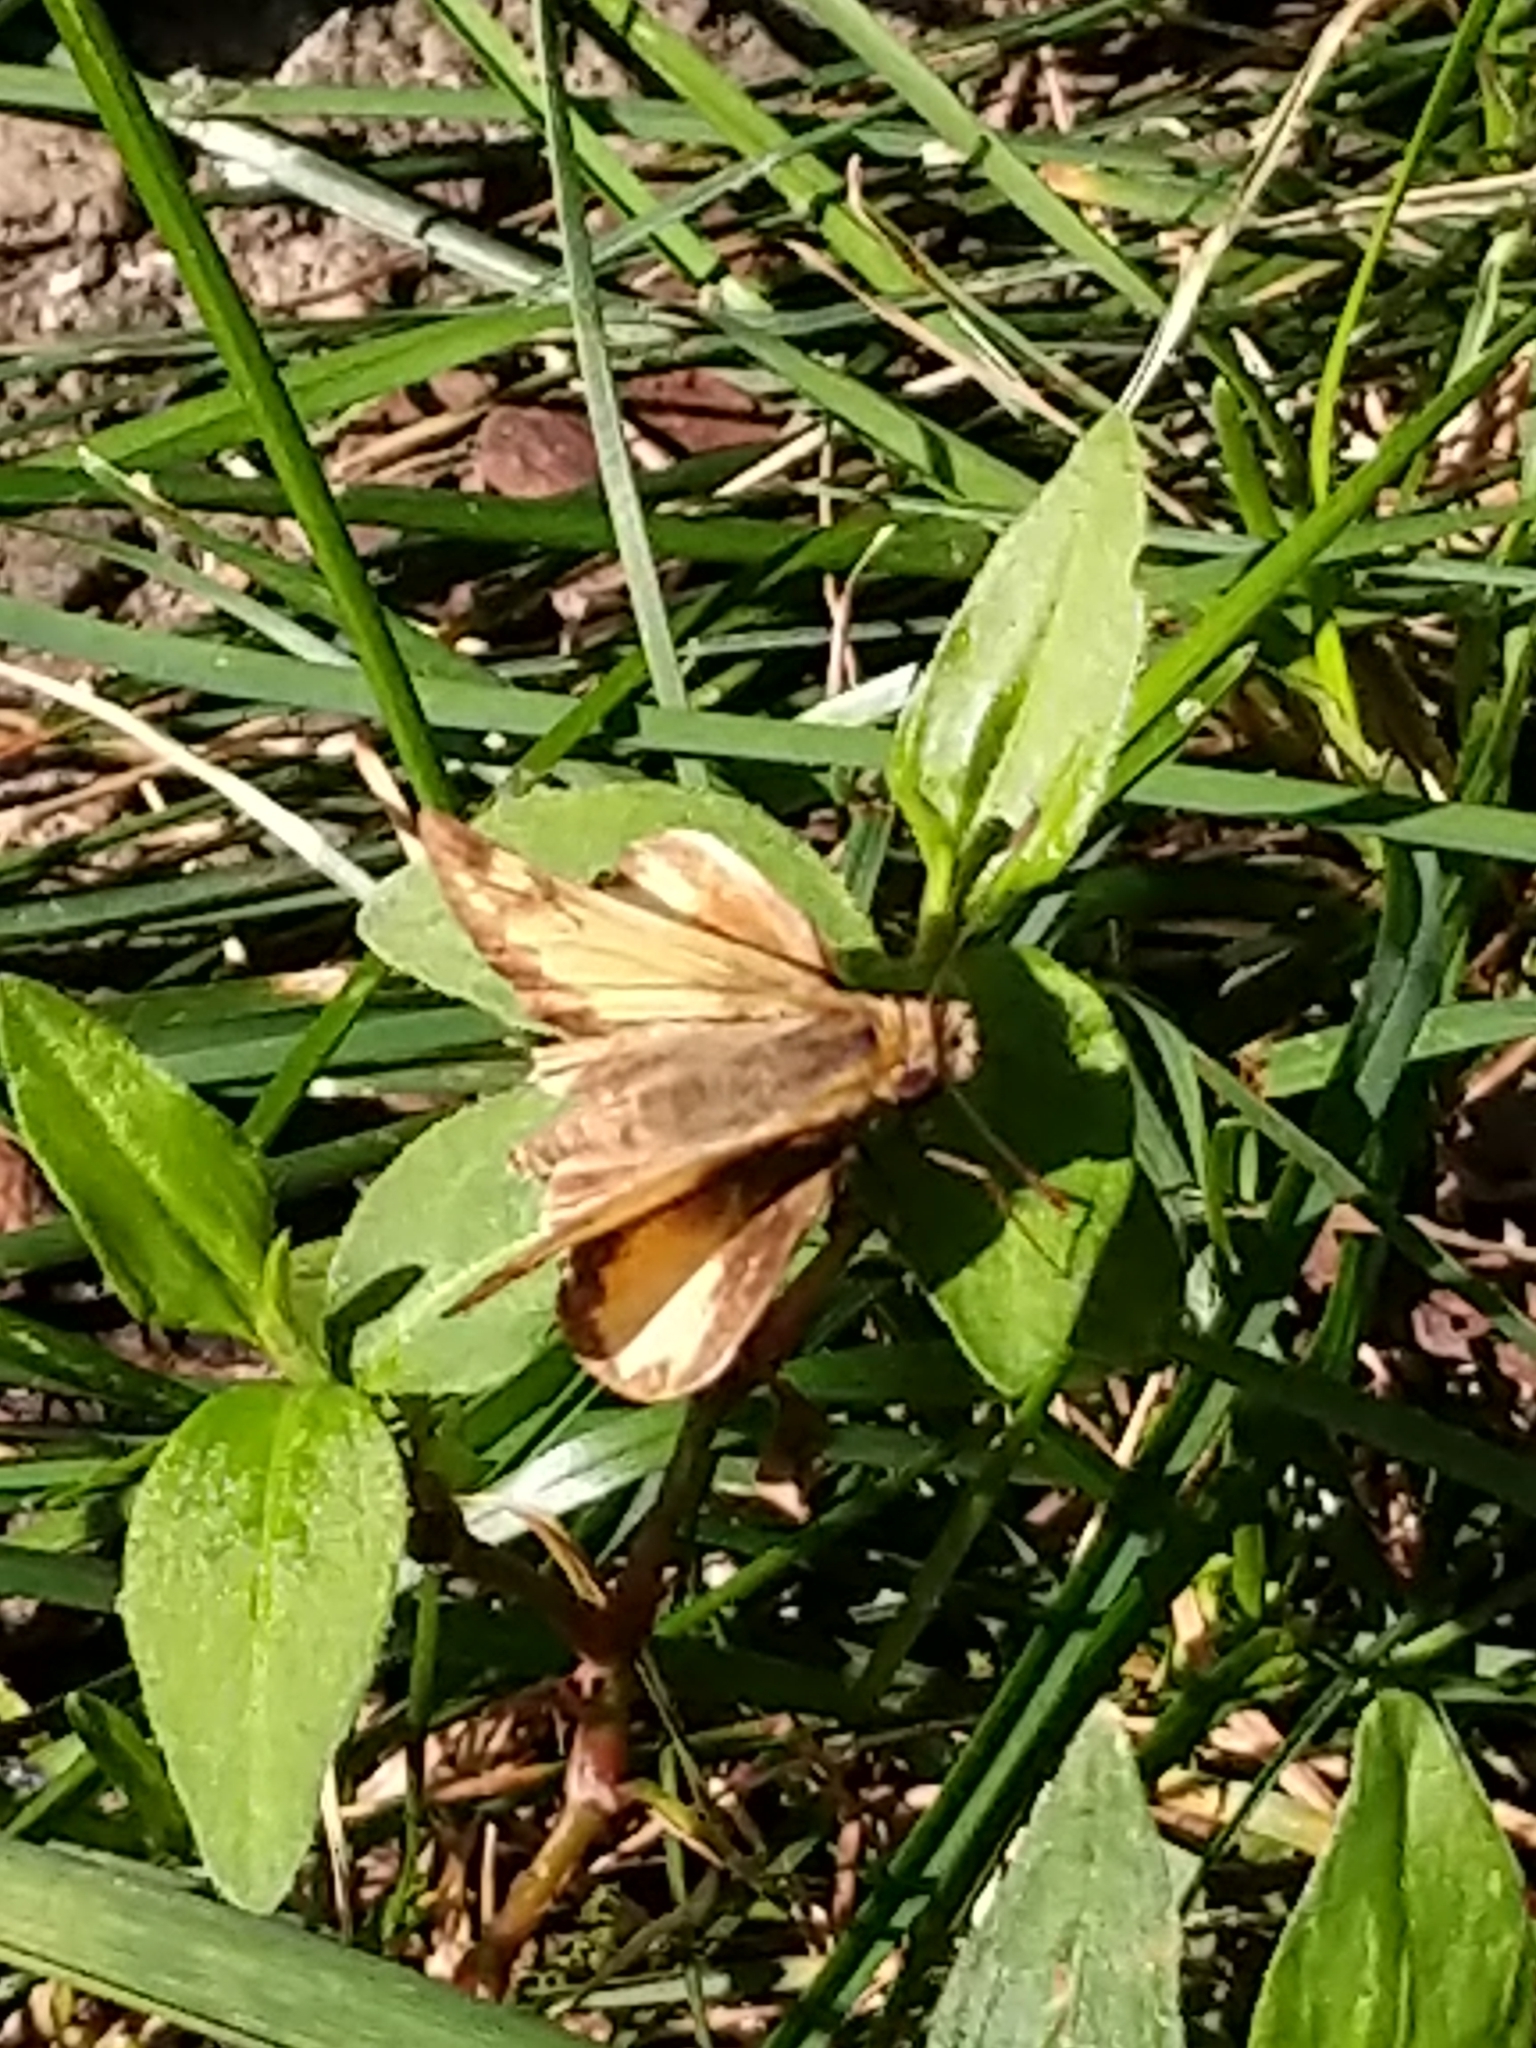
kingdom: Animalia
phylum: Arthropoda
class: Insecta
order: Lepidoptera
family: Hesperiidae
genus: Lon
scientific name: Lon zabulon
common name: Zabulon skipper
